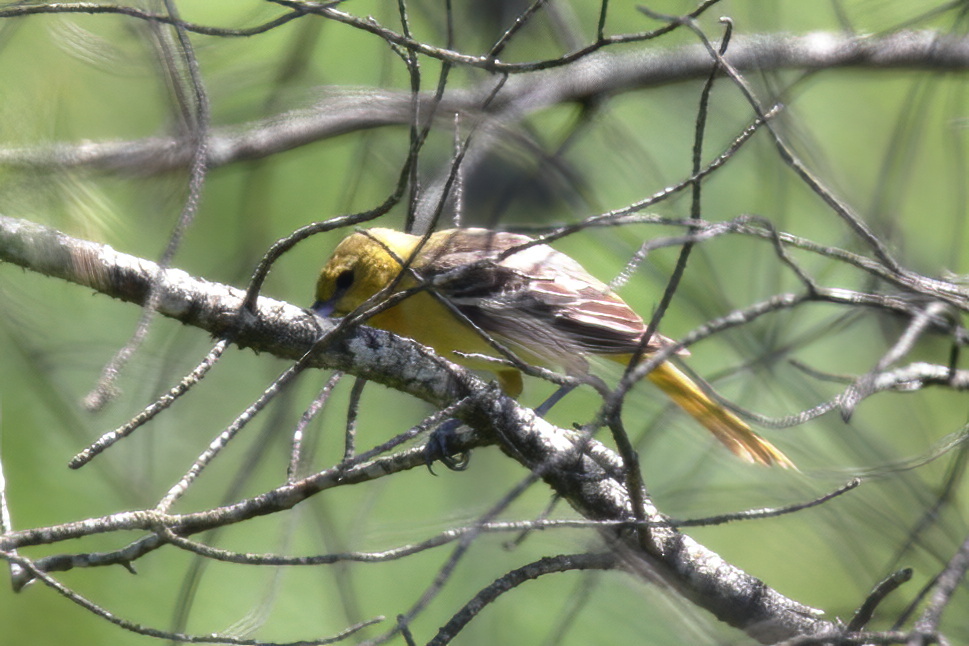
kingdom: Animalia
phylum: Chordata
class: Aves
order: Passeriformes
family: Icteridae
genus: Icterus
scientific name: Icterus galbula
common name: Baltimore oriole
